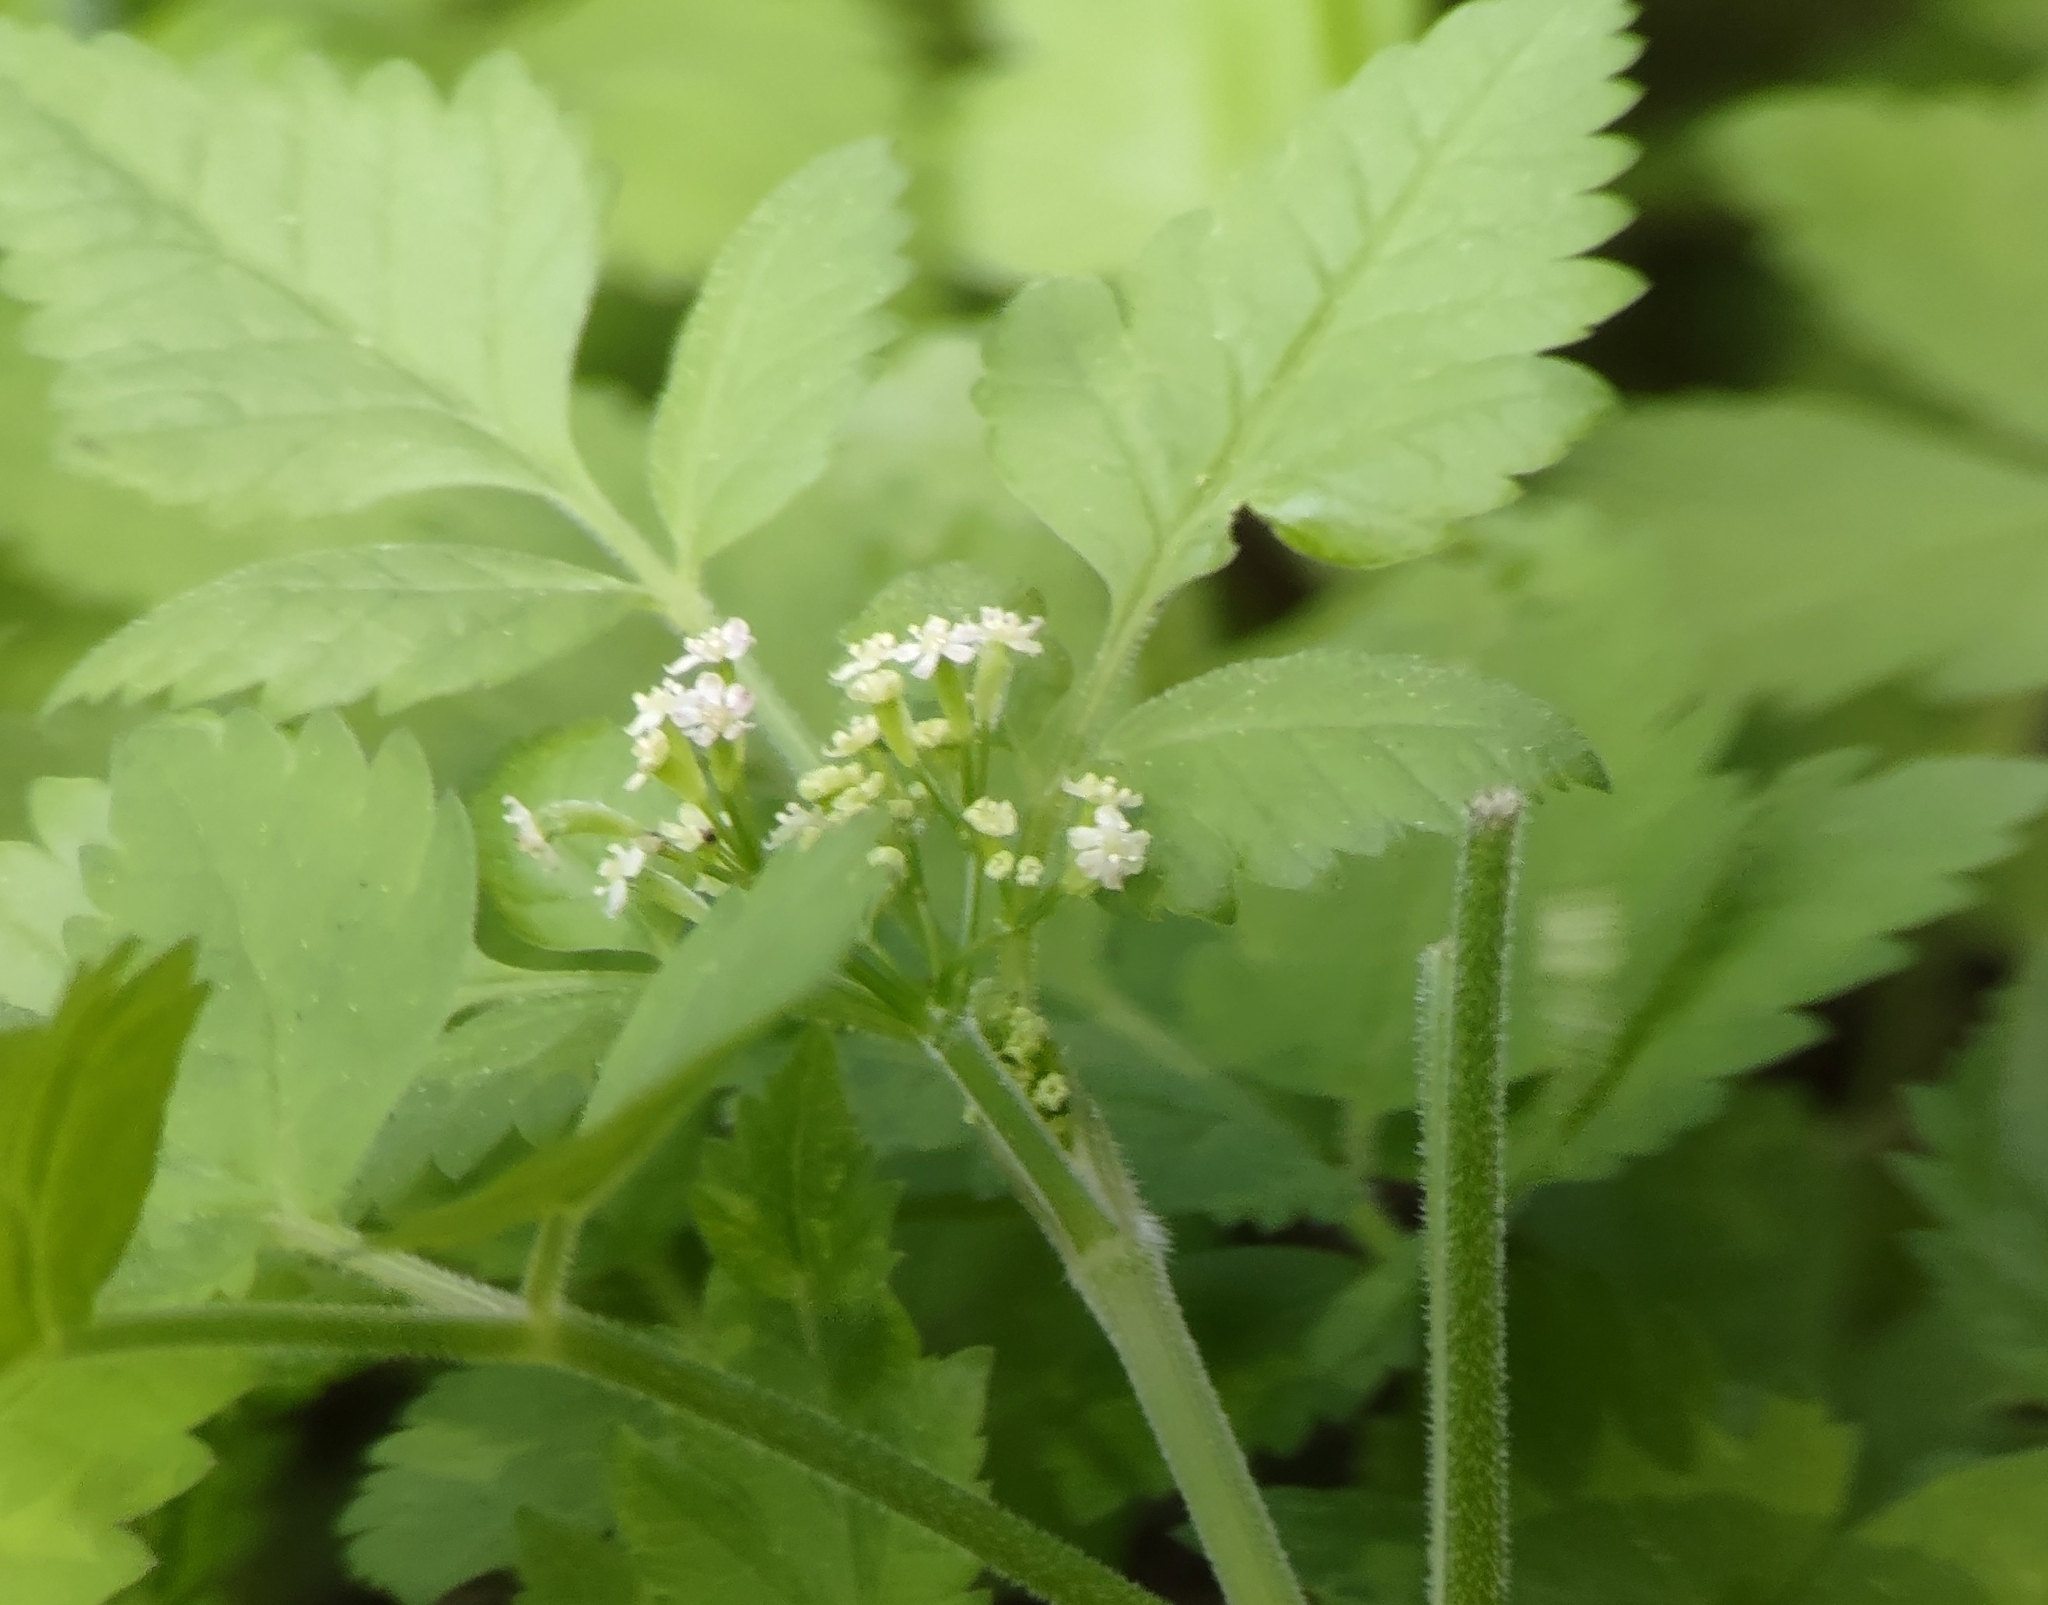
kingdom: Plantae
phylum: Tracheophyta
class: Magnoliopsida
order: Apiales
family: Apiaceae
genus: Osmorhiza
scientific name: Osmorhiza berteroi
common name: Mountain sweet cicely
